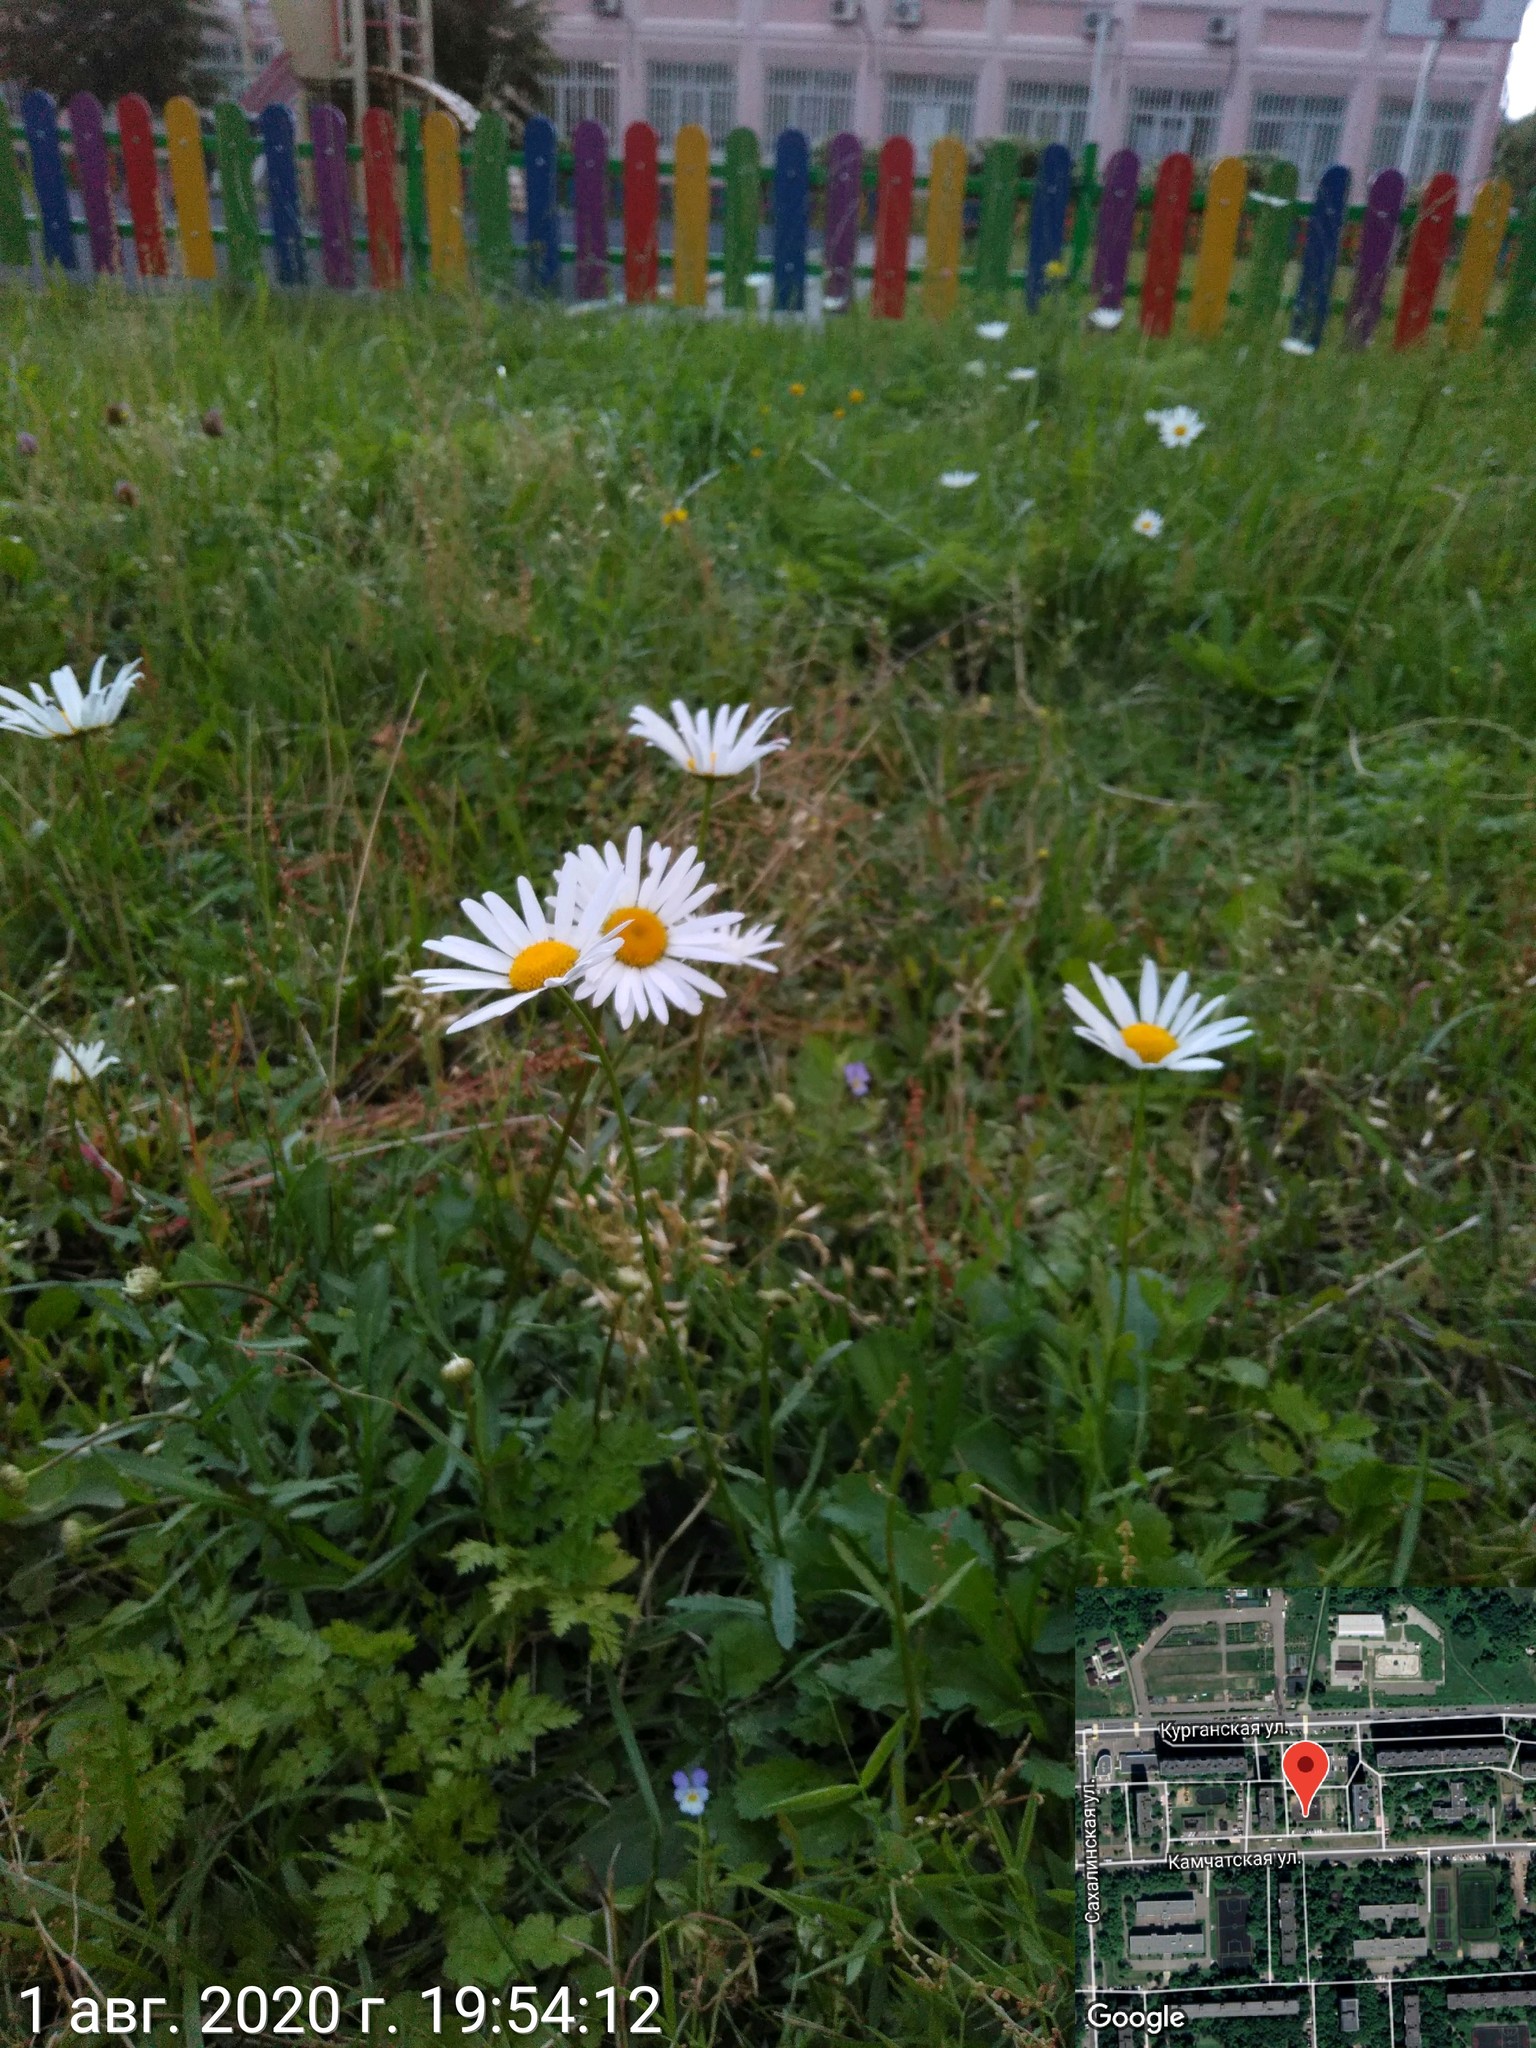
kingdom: Plantae
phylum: Tracheophyta
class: Magnoliopsida
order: Asterales
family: Asteraceae
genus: Leucanthemum
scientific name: Leucanthemum vulgare
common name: Oxeye daisy
